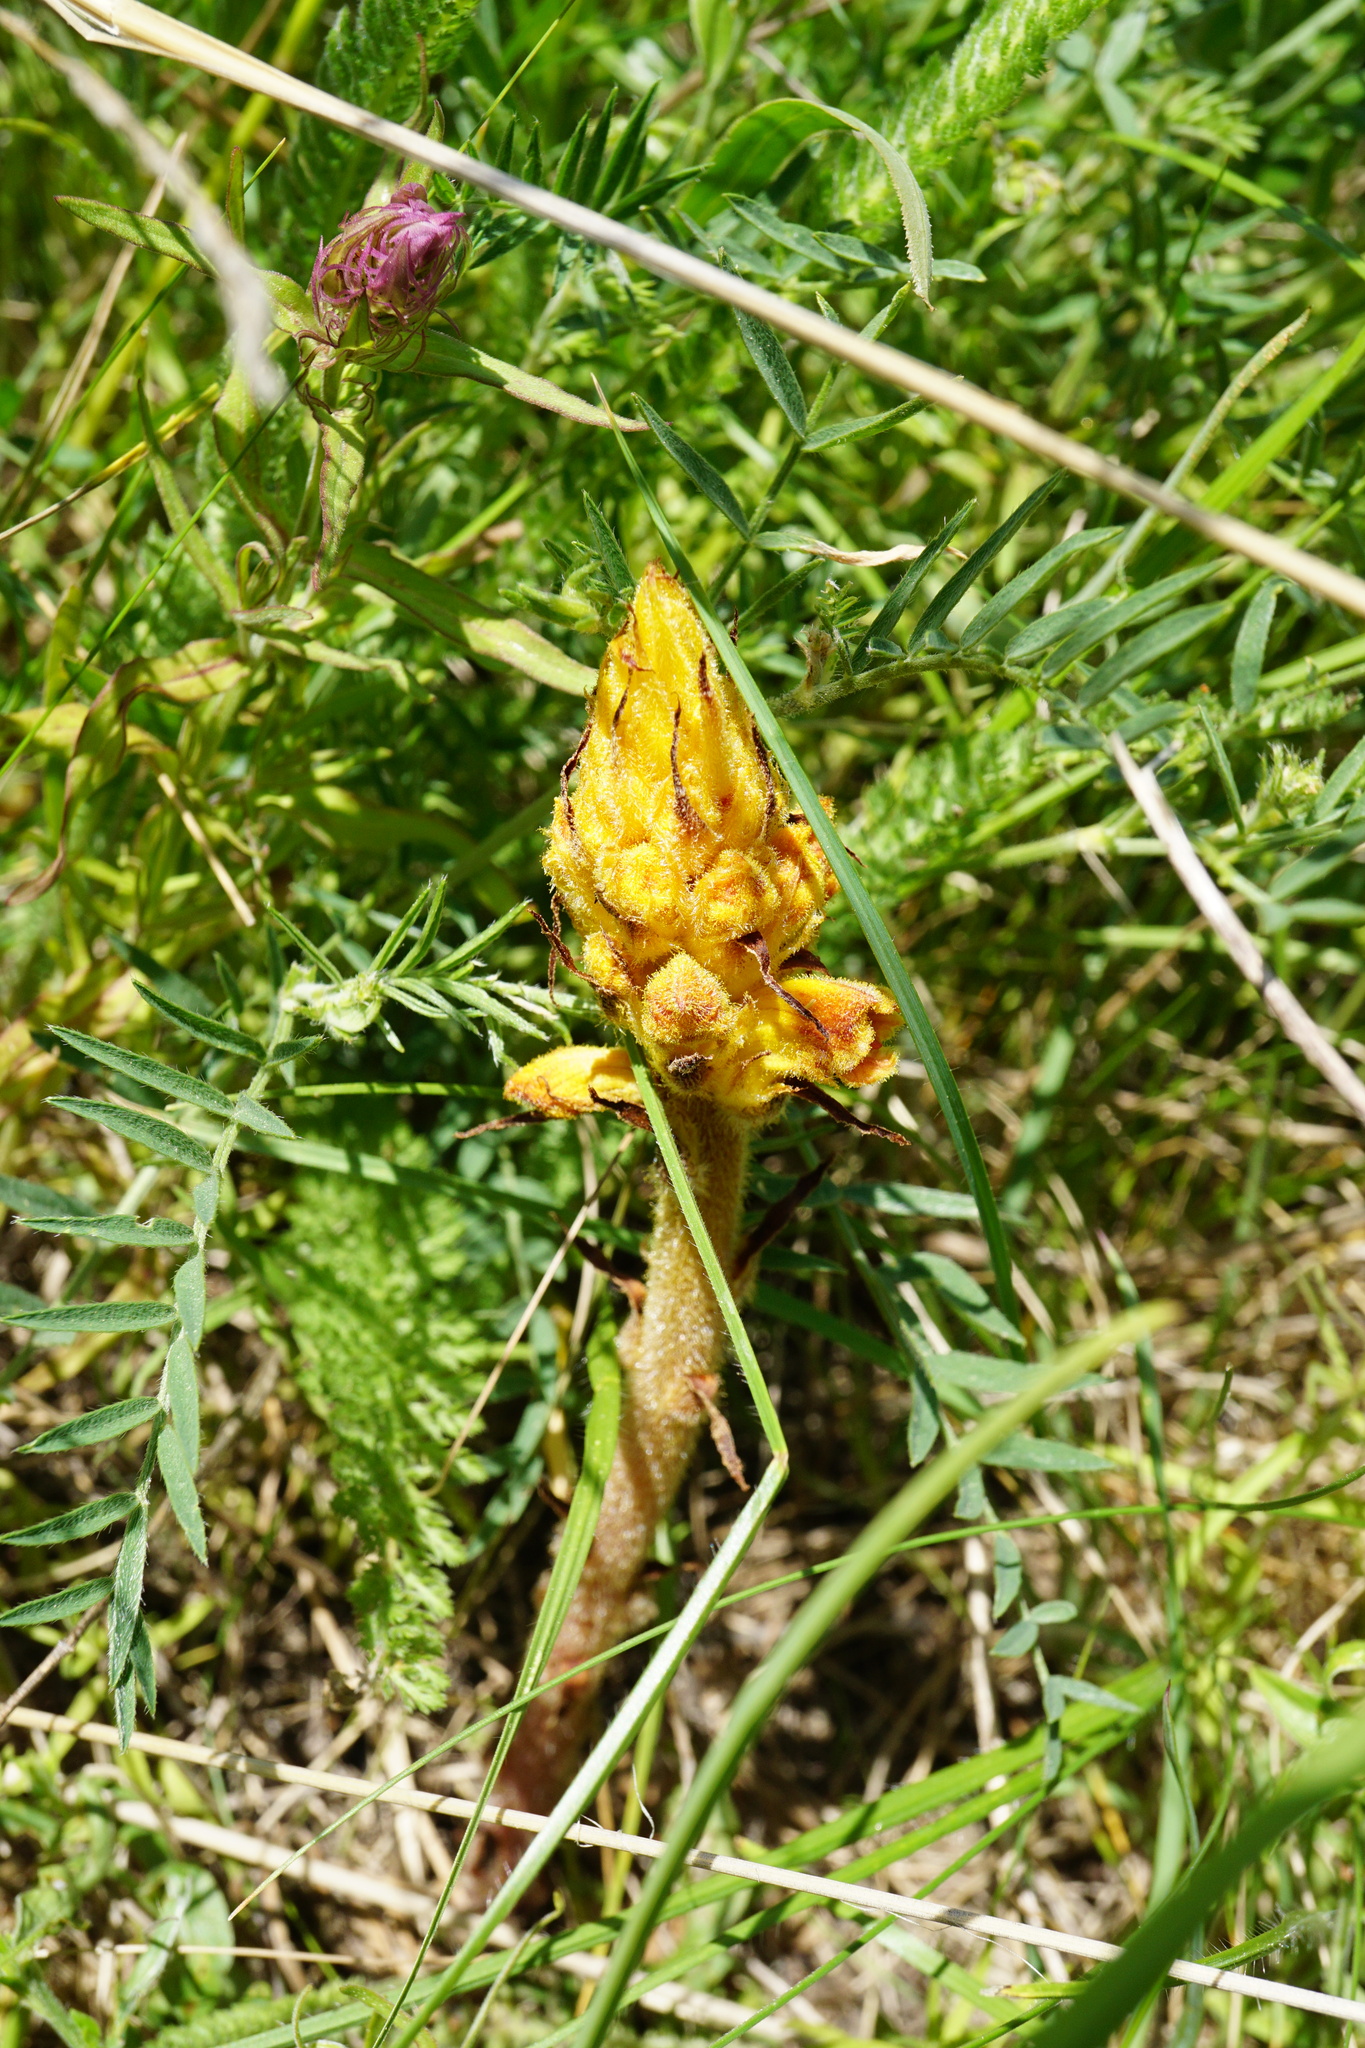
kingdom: Plantae
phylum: Tracheophyta
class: Magnoliopsida
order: Lamiales
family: Orobanchaceae
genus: Orobanche
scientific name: Orobanche gracilis
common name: Slender broomrape
